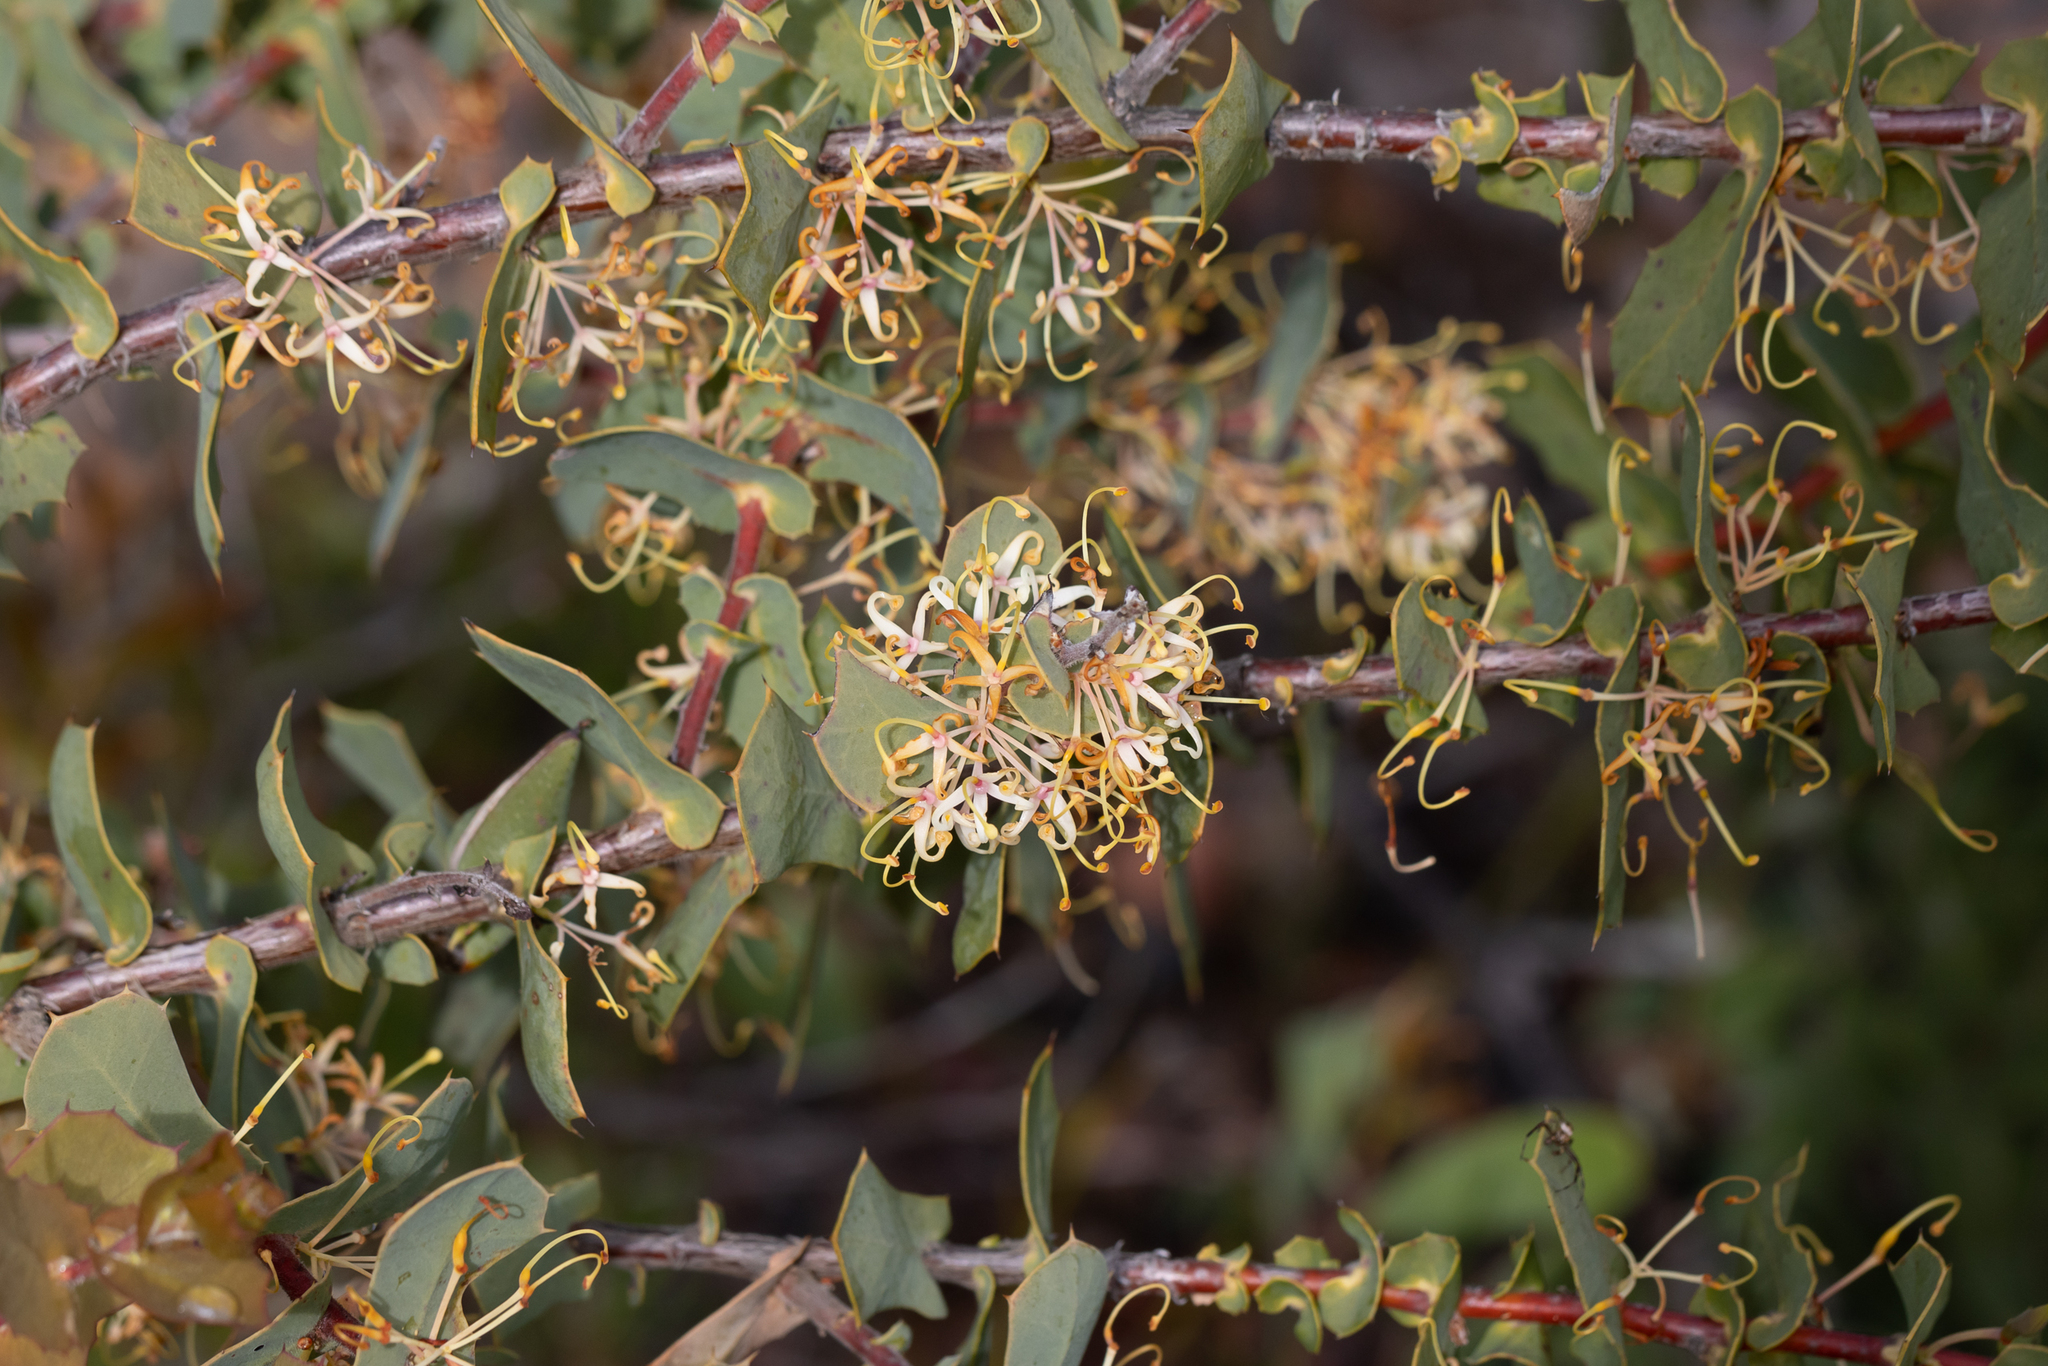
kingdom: Plantae
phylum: Tracheophyta
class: Magnoliopsida
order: Proteales
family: Proteaceae
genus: Hakea
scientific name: Hakea prostrata
